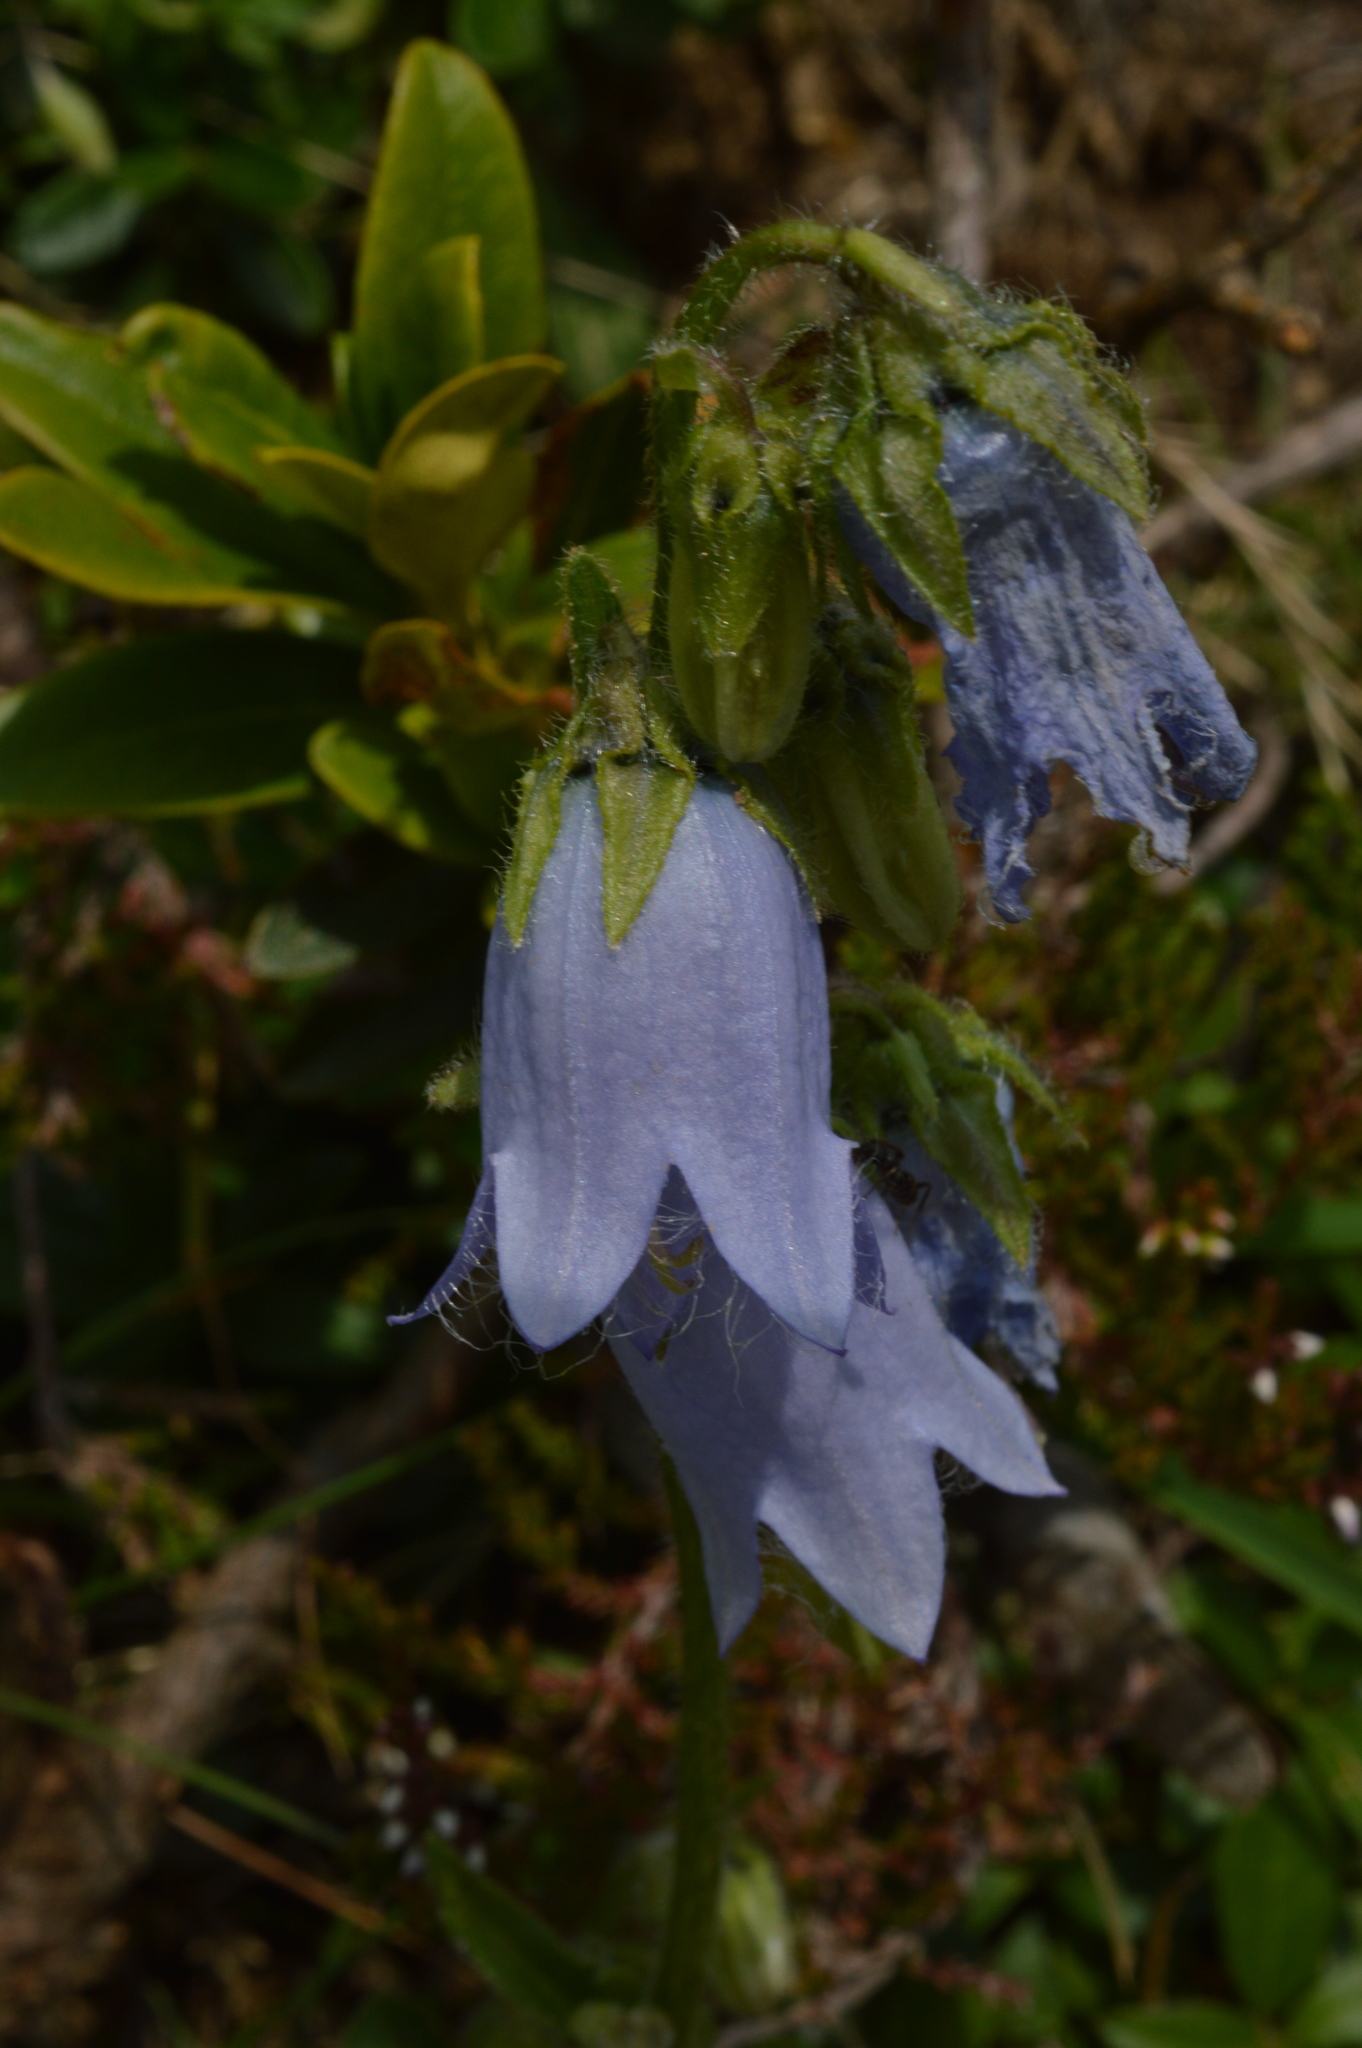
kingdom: Plantae
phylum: Tracheophyta
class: Magnoliopsida
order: Asterales
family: Campanulaceae
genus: Campanula
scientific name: Campanula barbata
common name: Bearded bellflower
